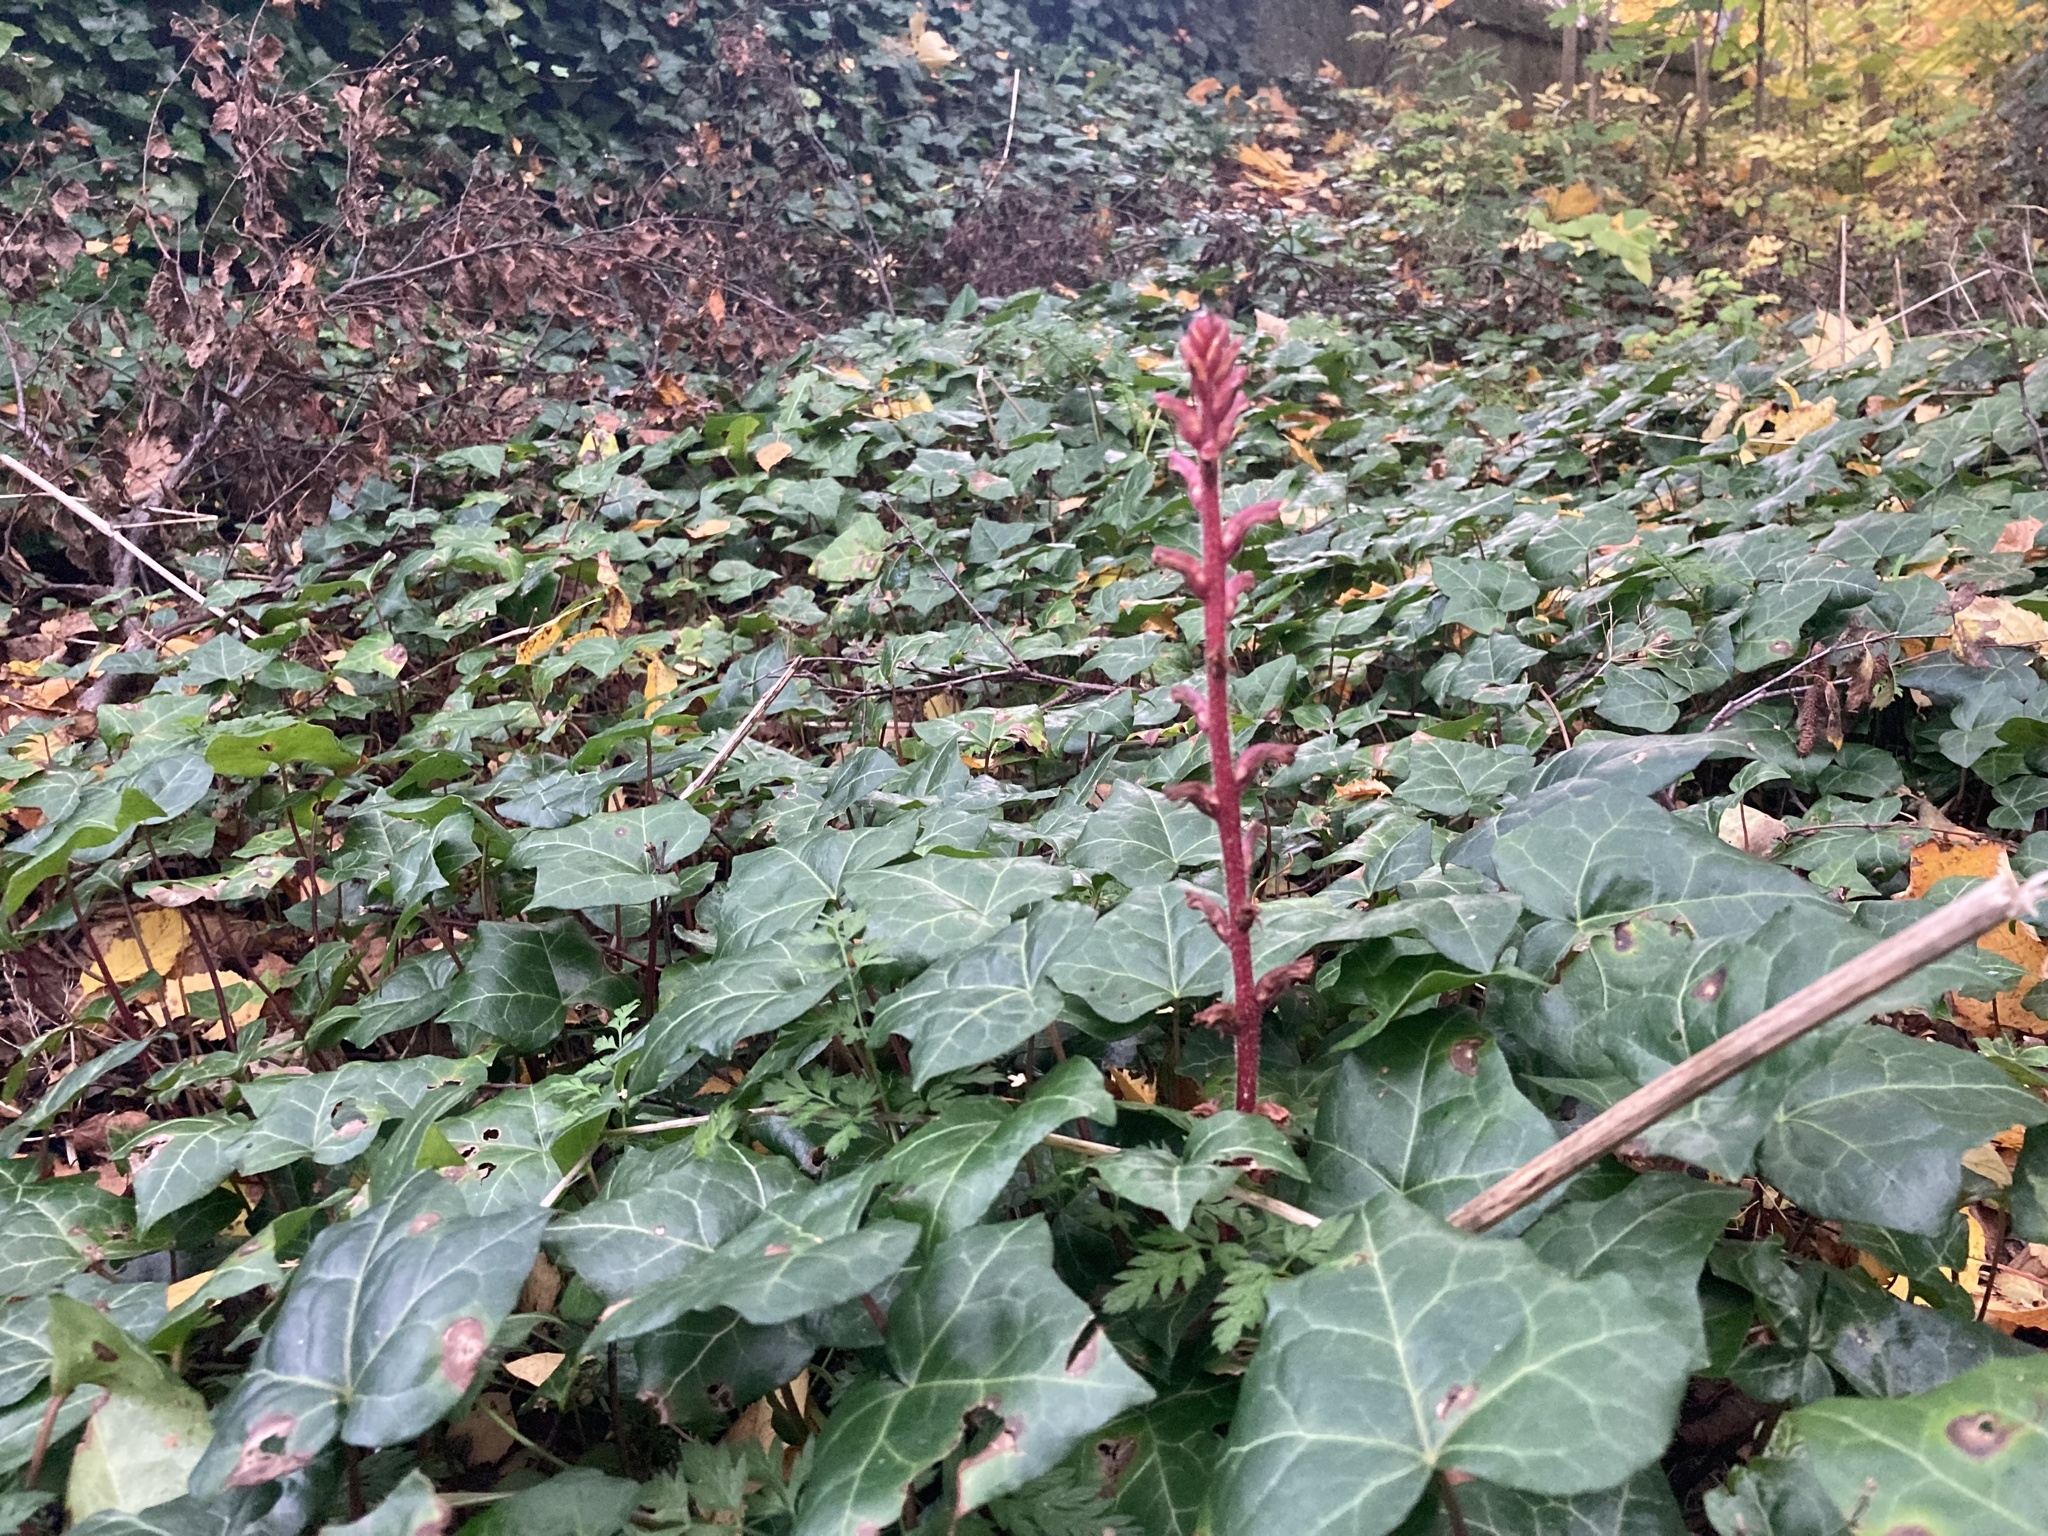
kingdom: Plantae
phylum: Tracheophyta
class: Magnoliopsida
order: Lamiales
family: Orobanchaceae
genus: Orobanche
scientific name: Orobanche hederae
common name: Ivy broomrape
